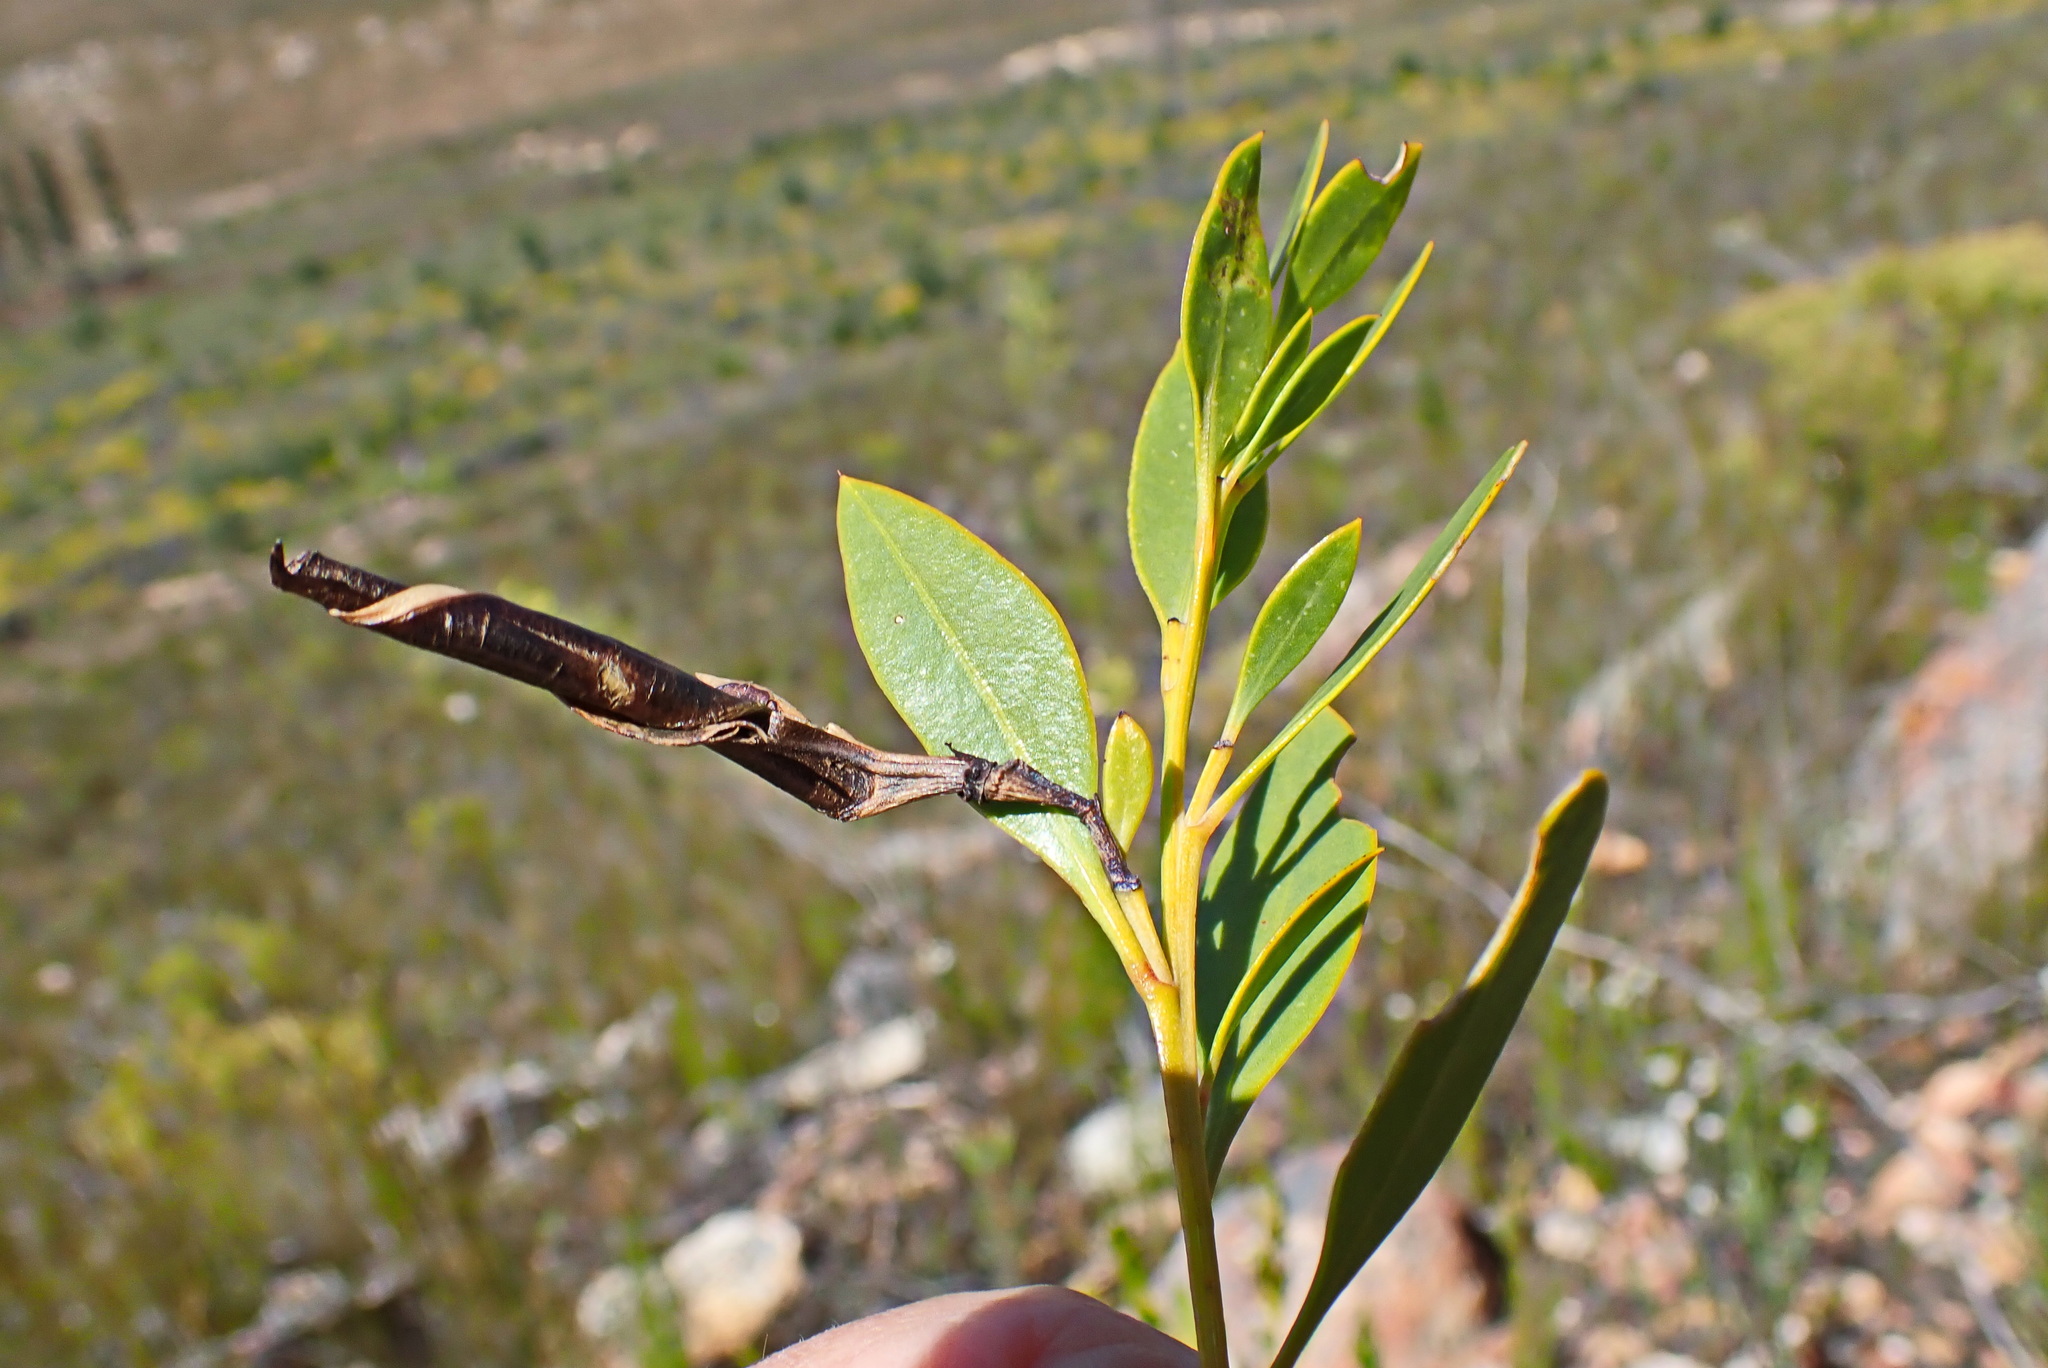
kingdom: Plantae
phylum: Tracheophyta
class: Magnoliopsida
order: Fabales
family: Fabaceae
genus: Rafnia
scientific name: Rafnia vlokii
